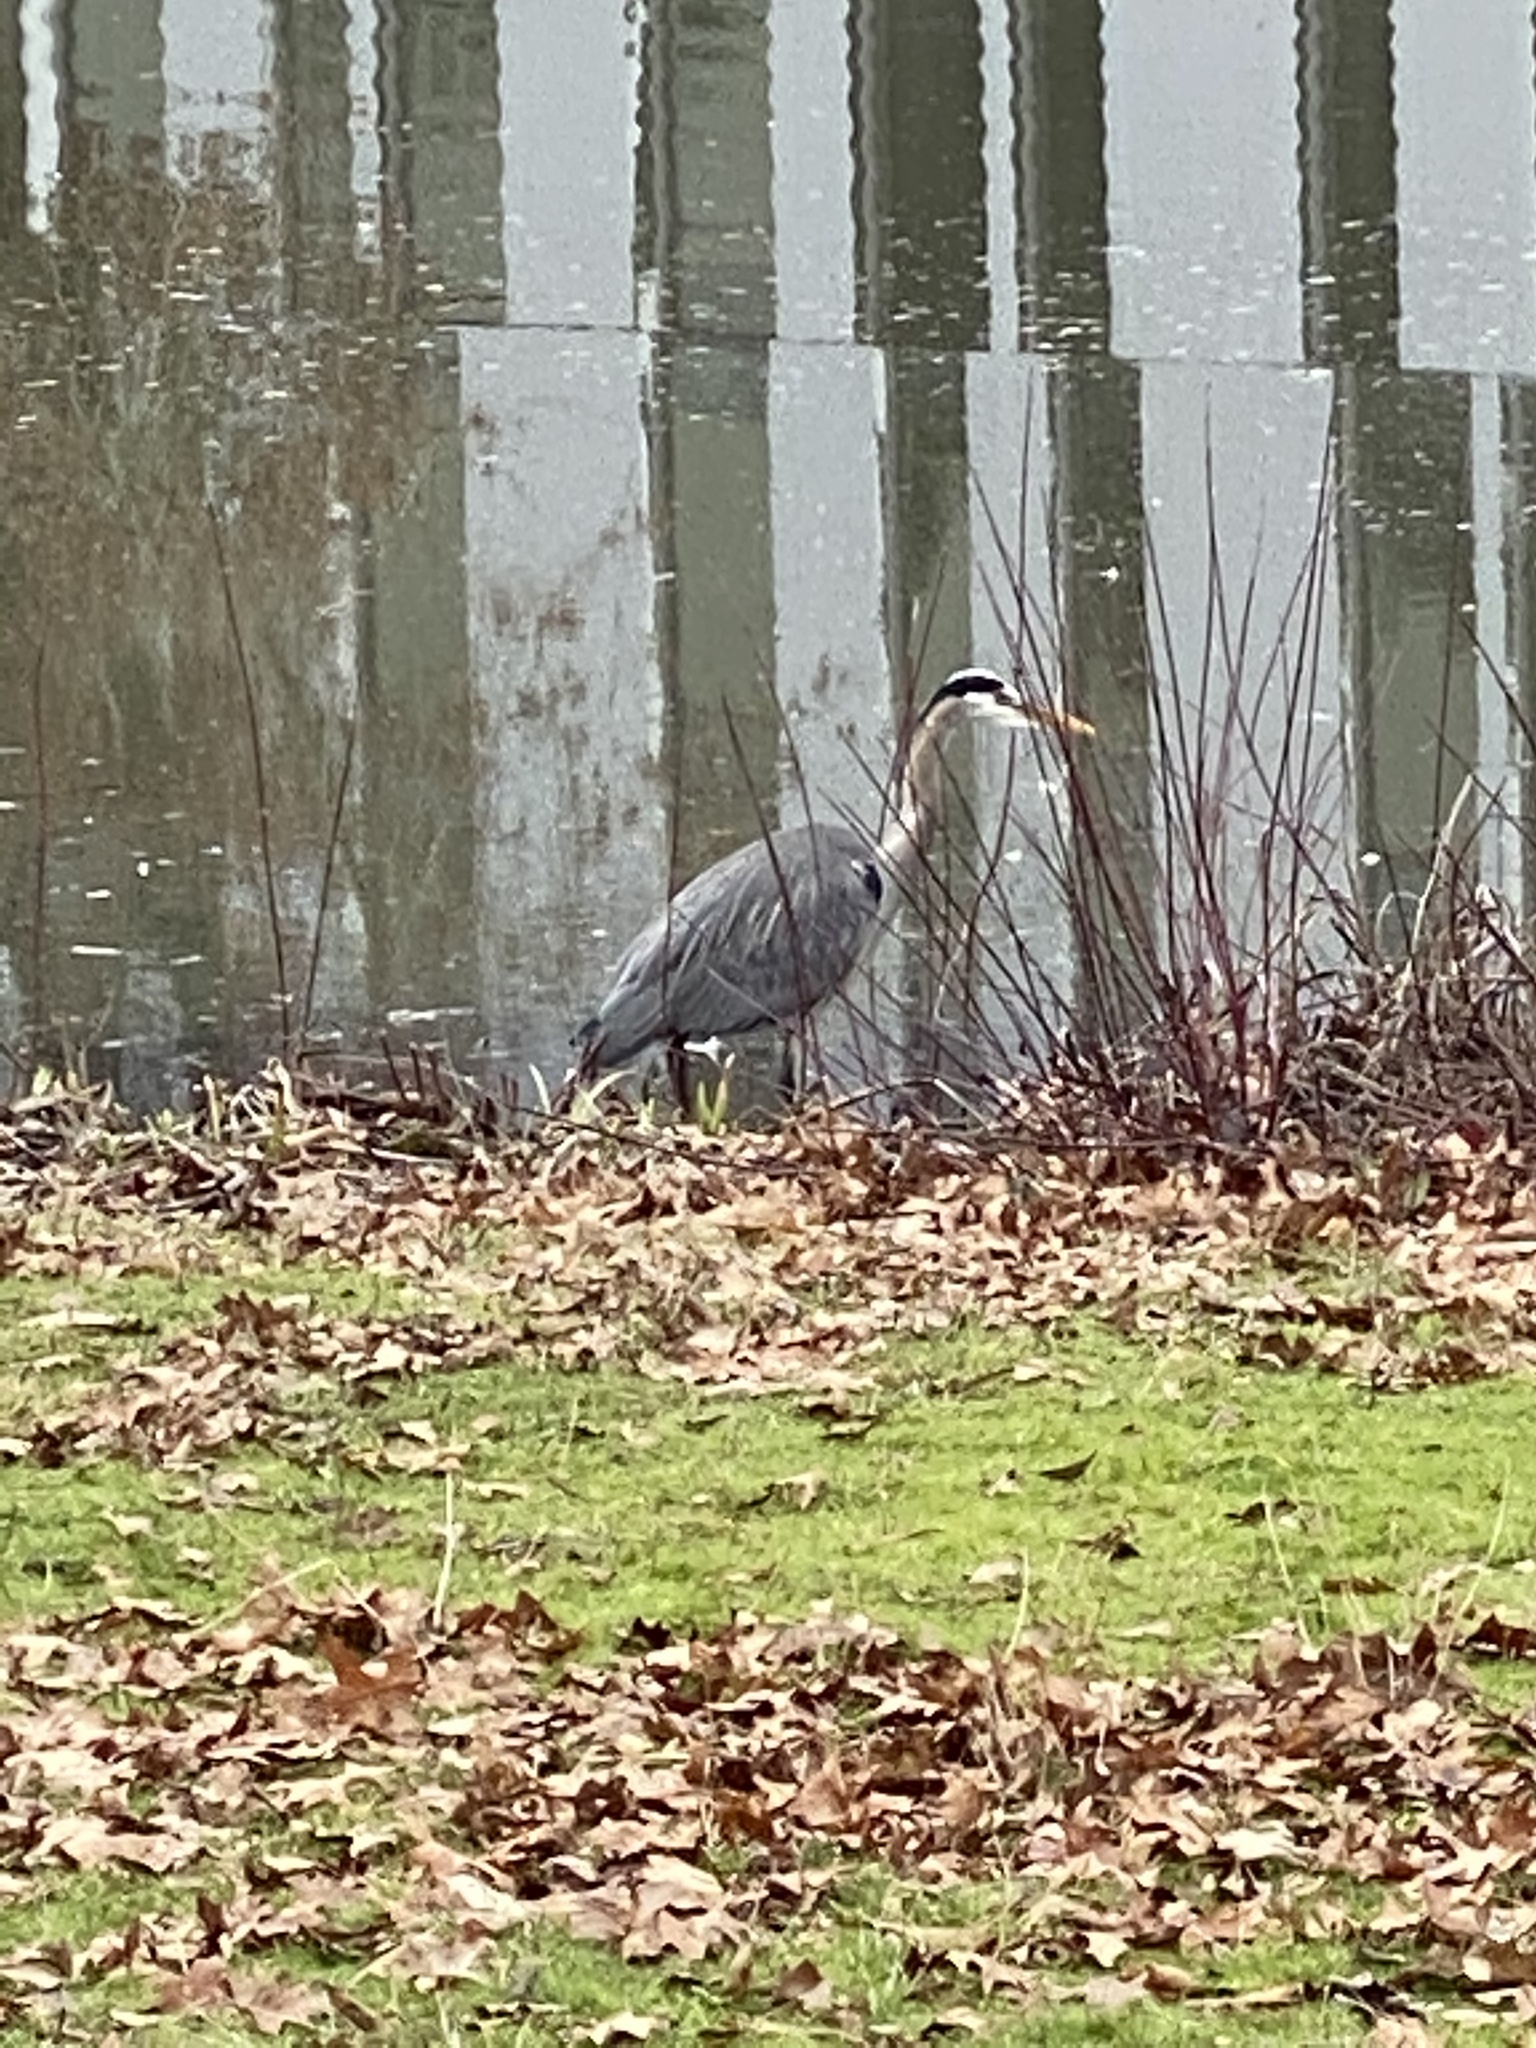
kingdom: Animalia
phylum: Chordata
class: Aves
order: Pelecaniformes
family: Ardeidae
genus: Ardea
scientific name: Ardea herodias
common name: Great blue heron
